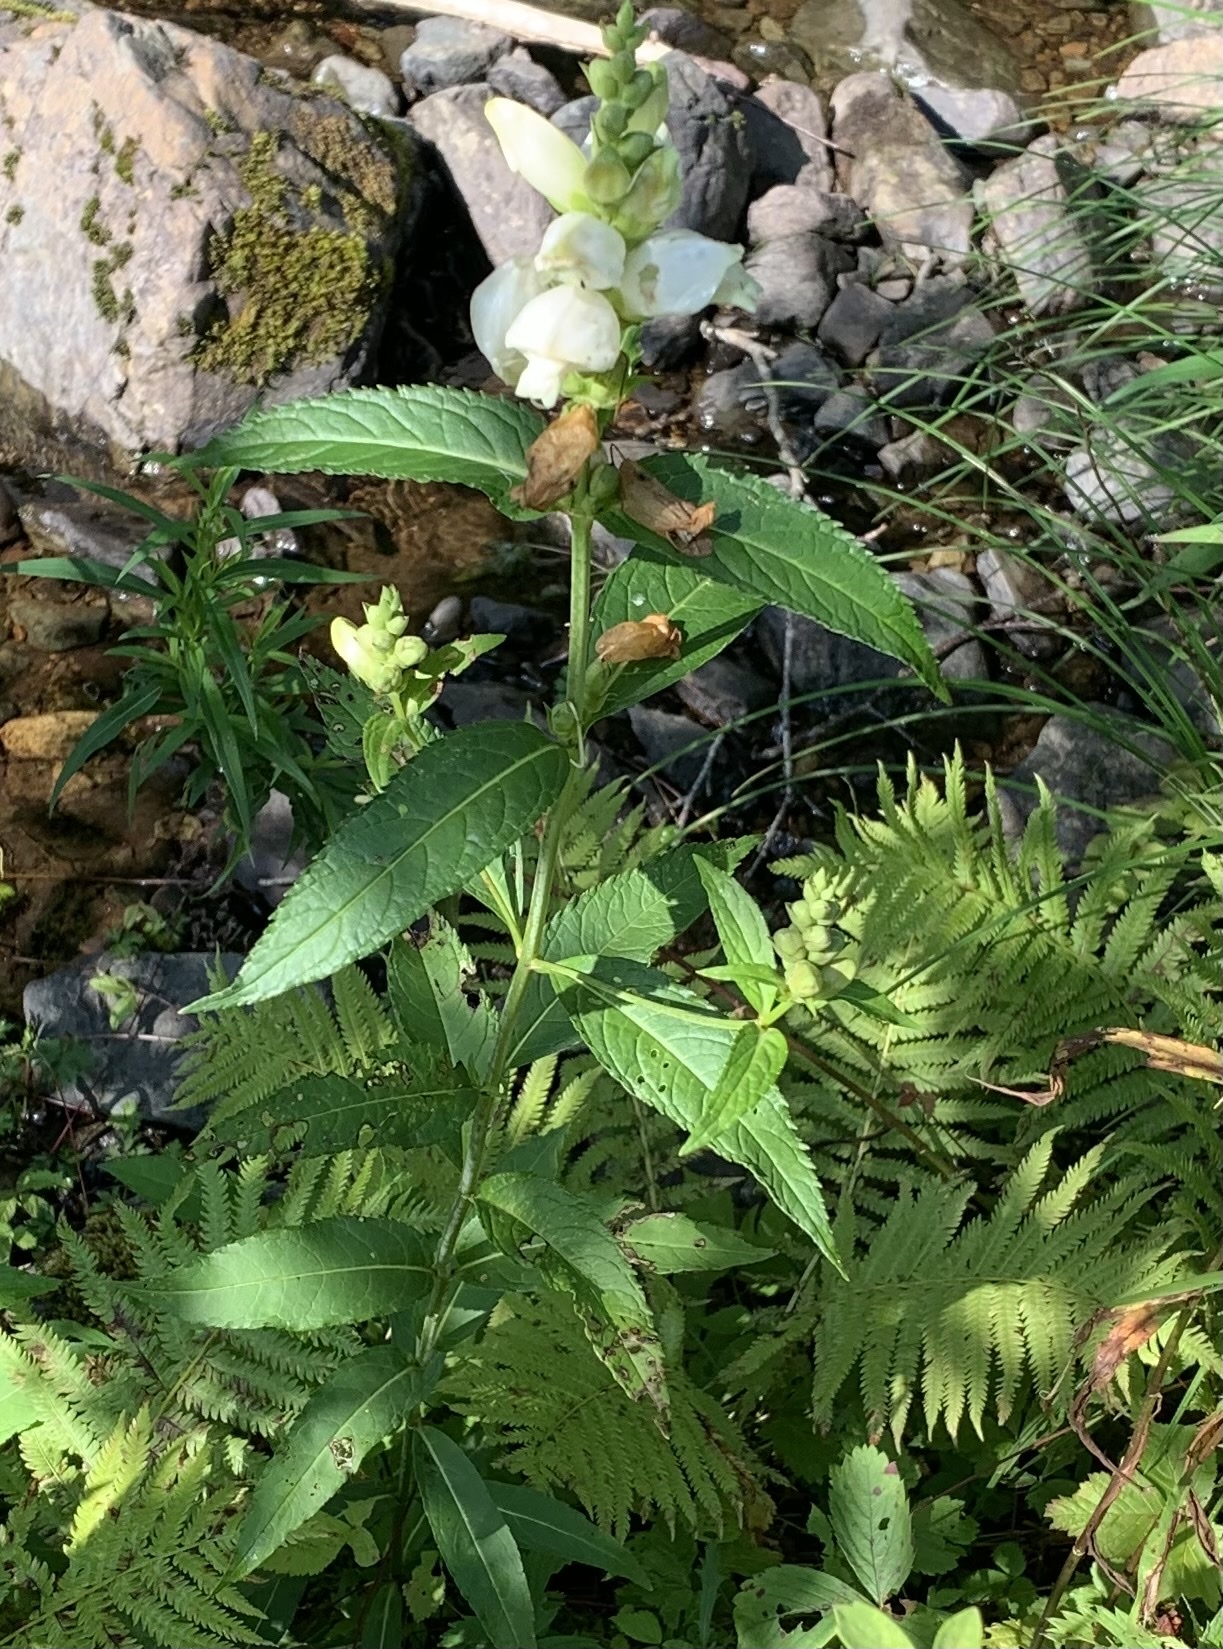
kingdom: Plantae
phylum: Tracheophyta
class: Magnoliopsida
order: Lamiales
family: Plantaginaceae
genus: Chelone
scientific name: Chelone glabra
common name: Snakehead
